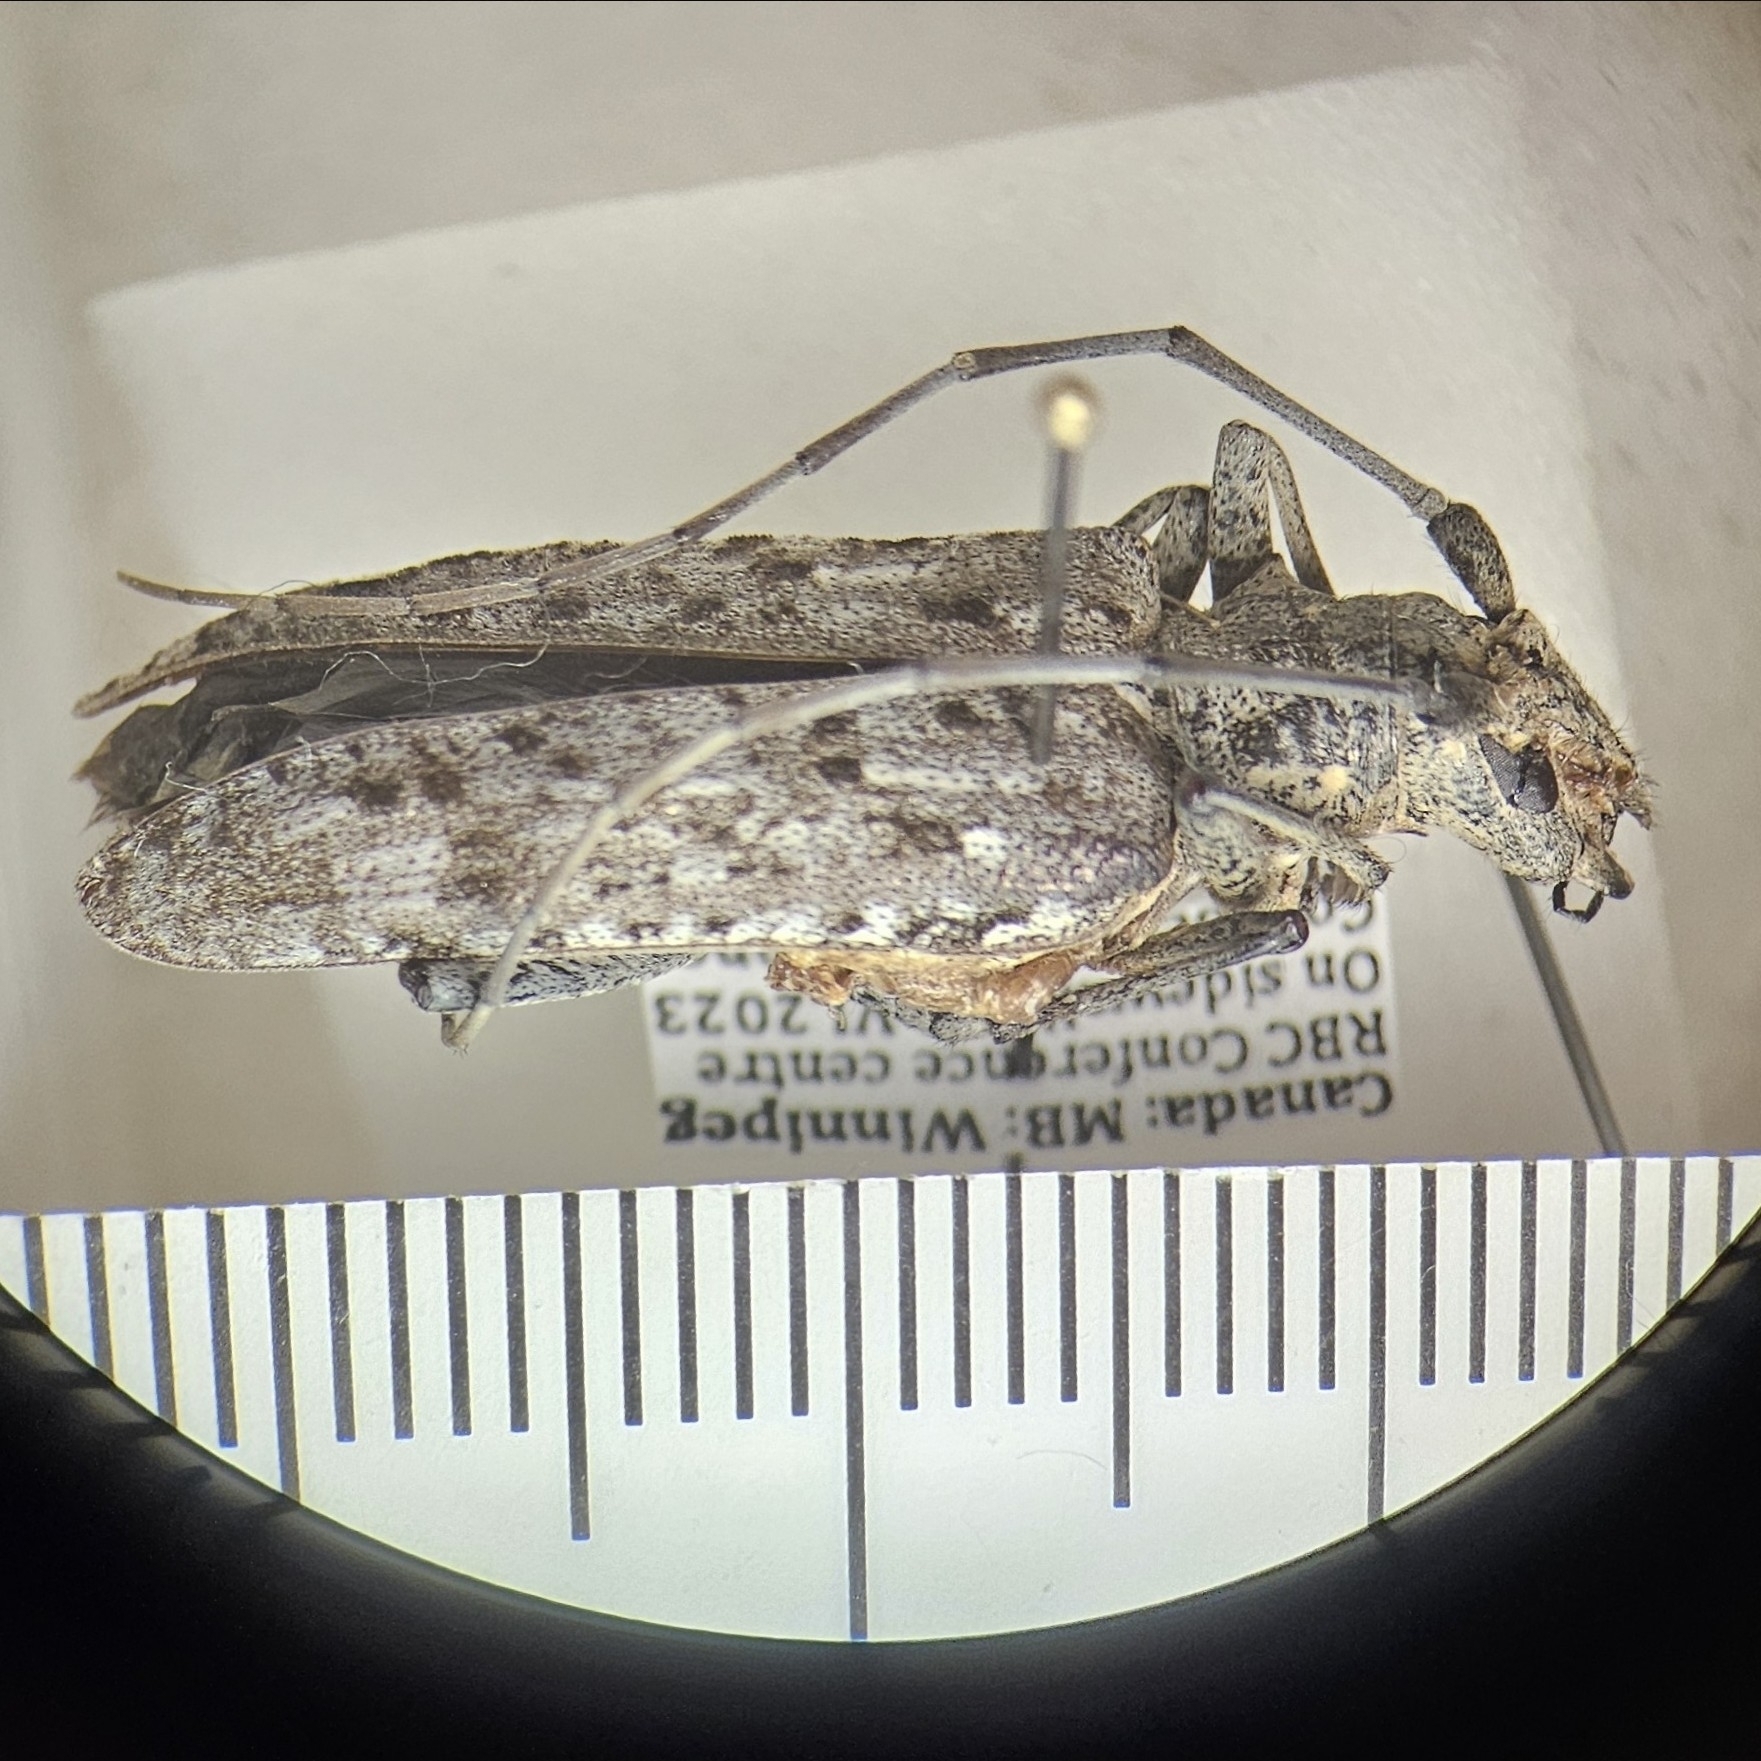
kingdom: Animalia
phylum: Arthropoda
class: Insecta
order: Coleoptera
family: Cerambycidae
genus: Monochamus
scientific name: Monochamus notatus
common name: Northeastern pine sawyer beetle
